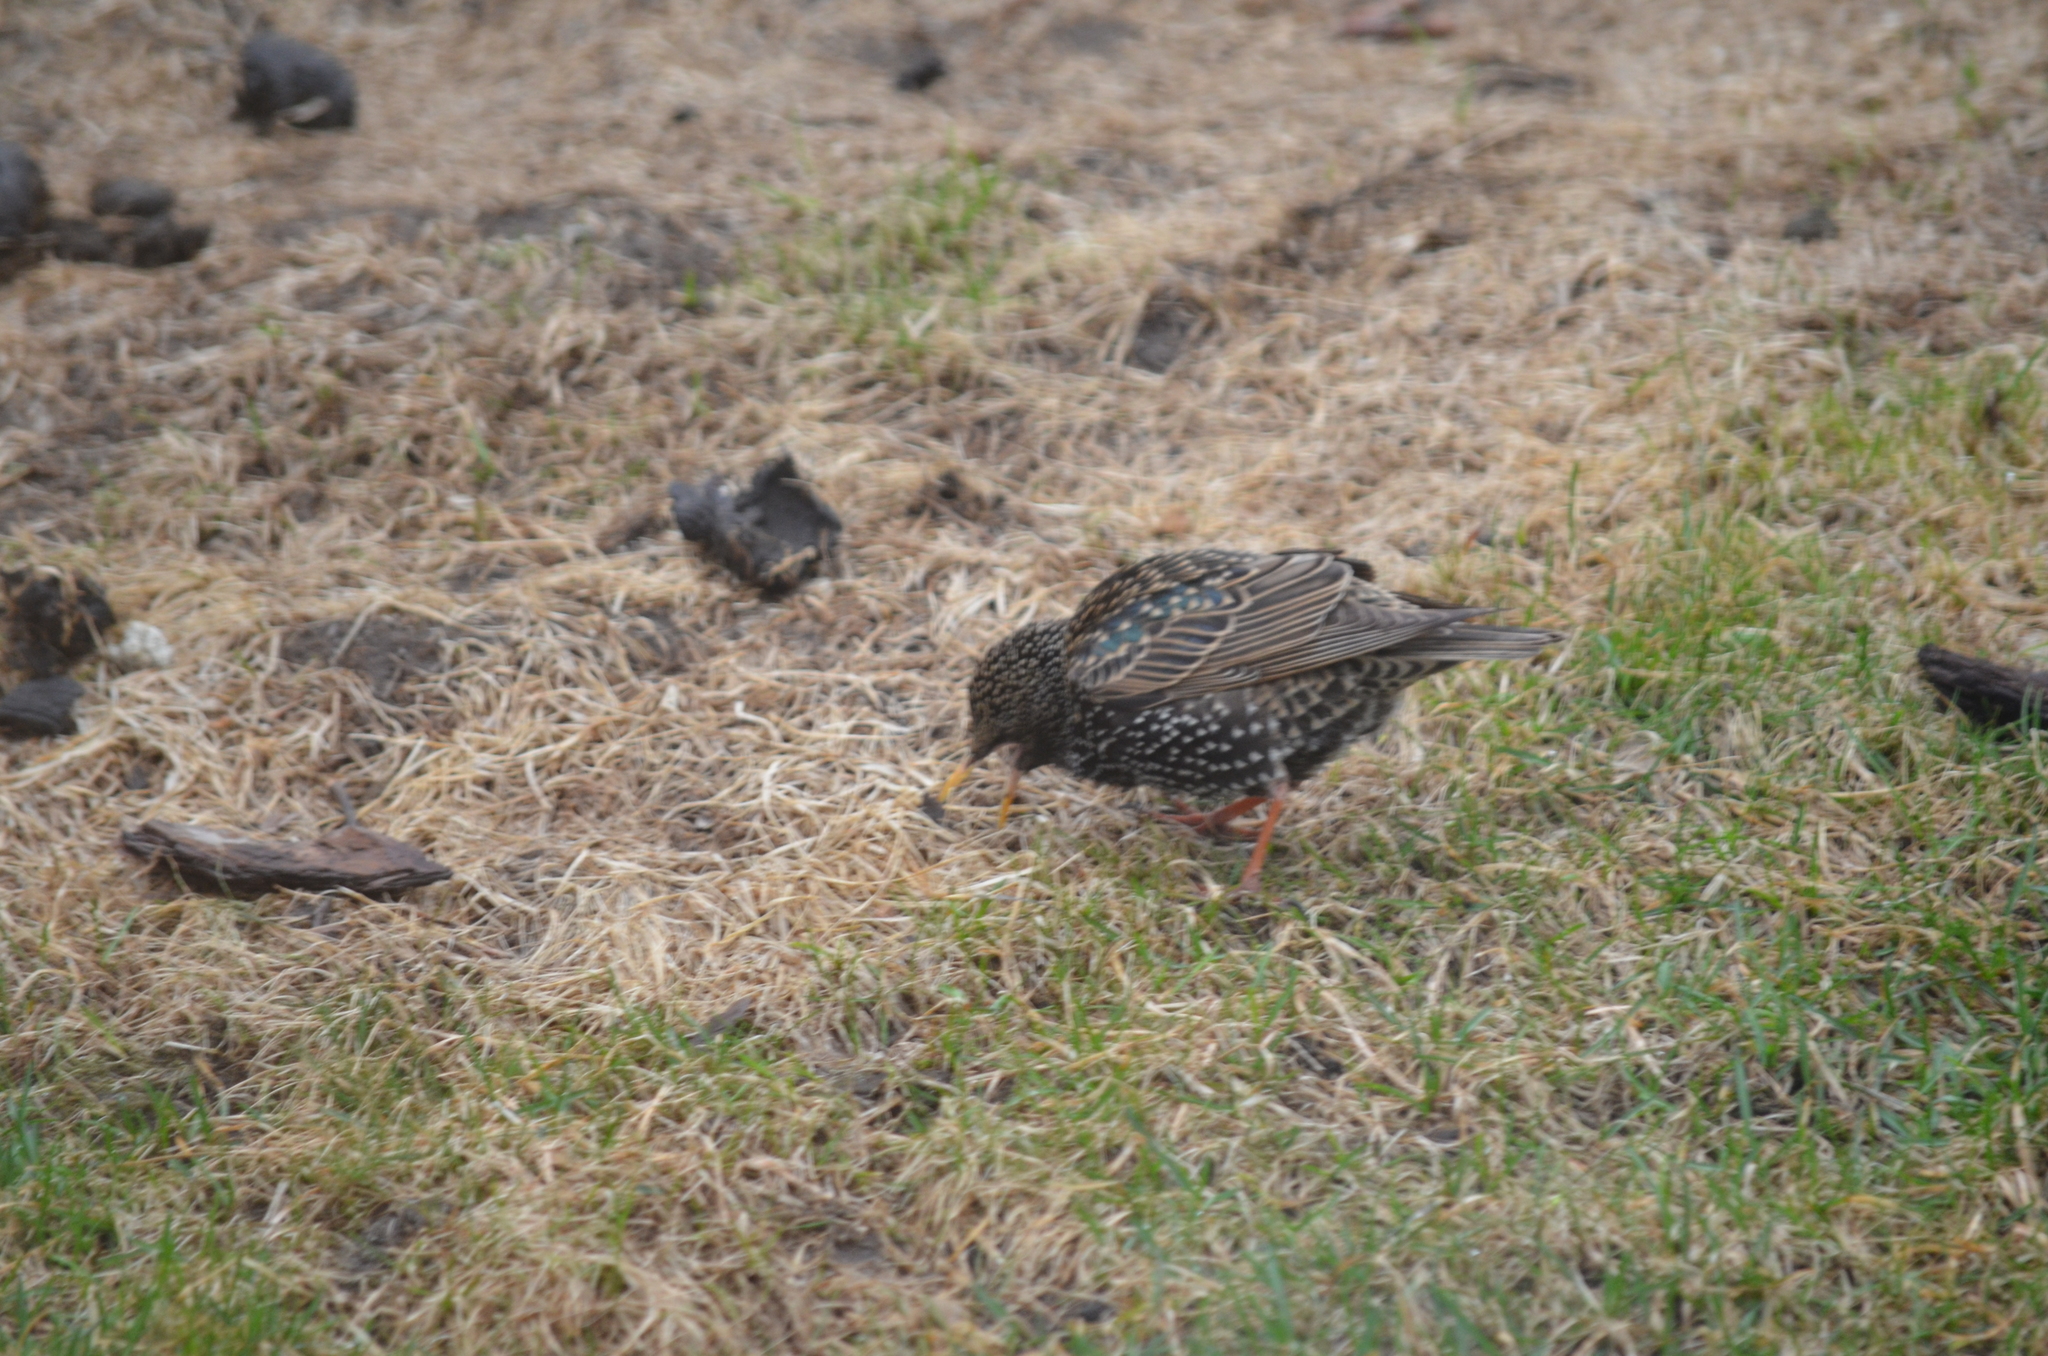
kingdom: Animalia
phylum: Chordata
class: Aves
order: Passeriformes
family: Sturnidae
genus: Sturnus
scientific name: Sturnus vulgaris
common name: Common starling
